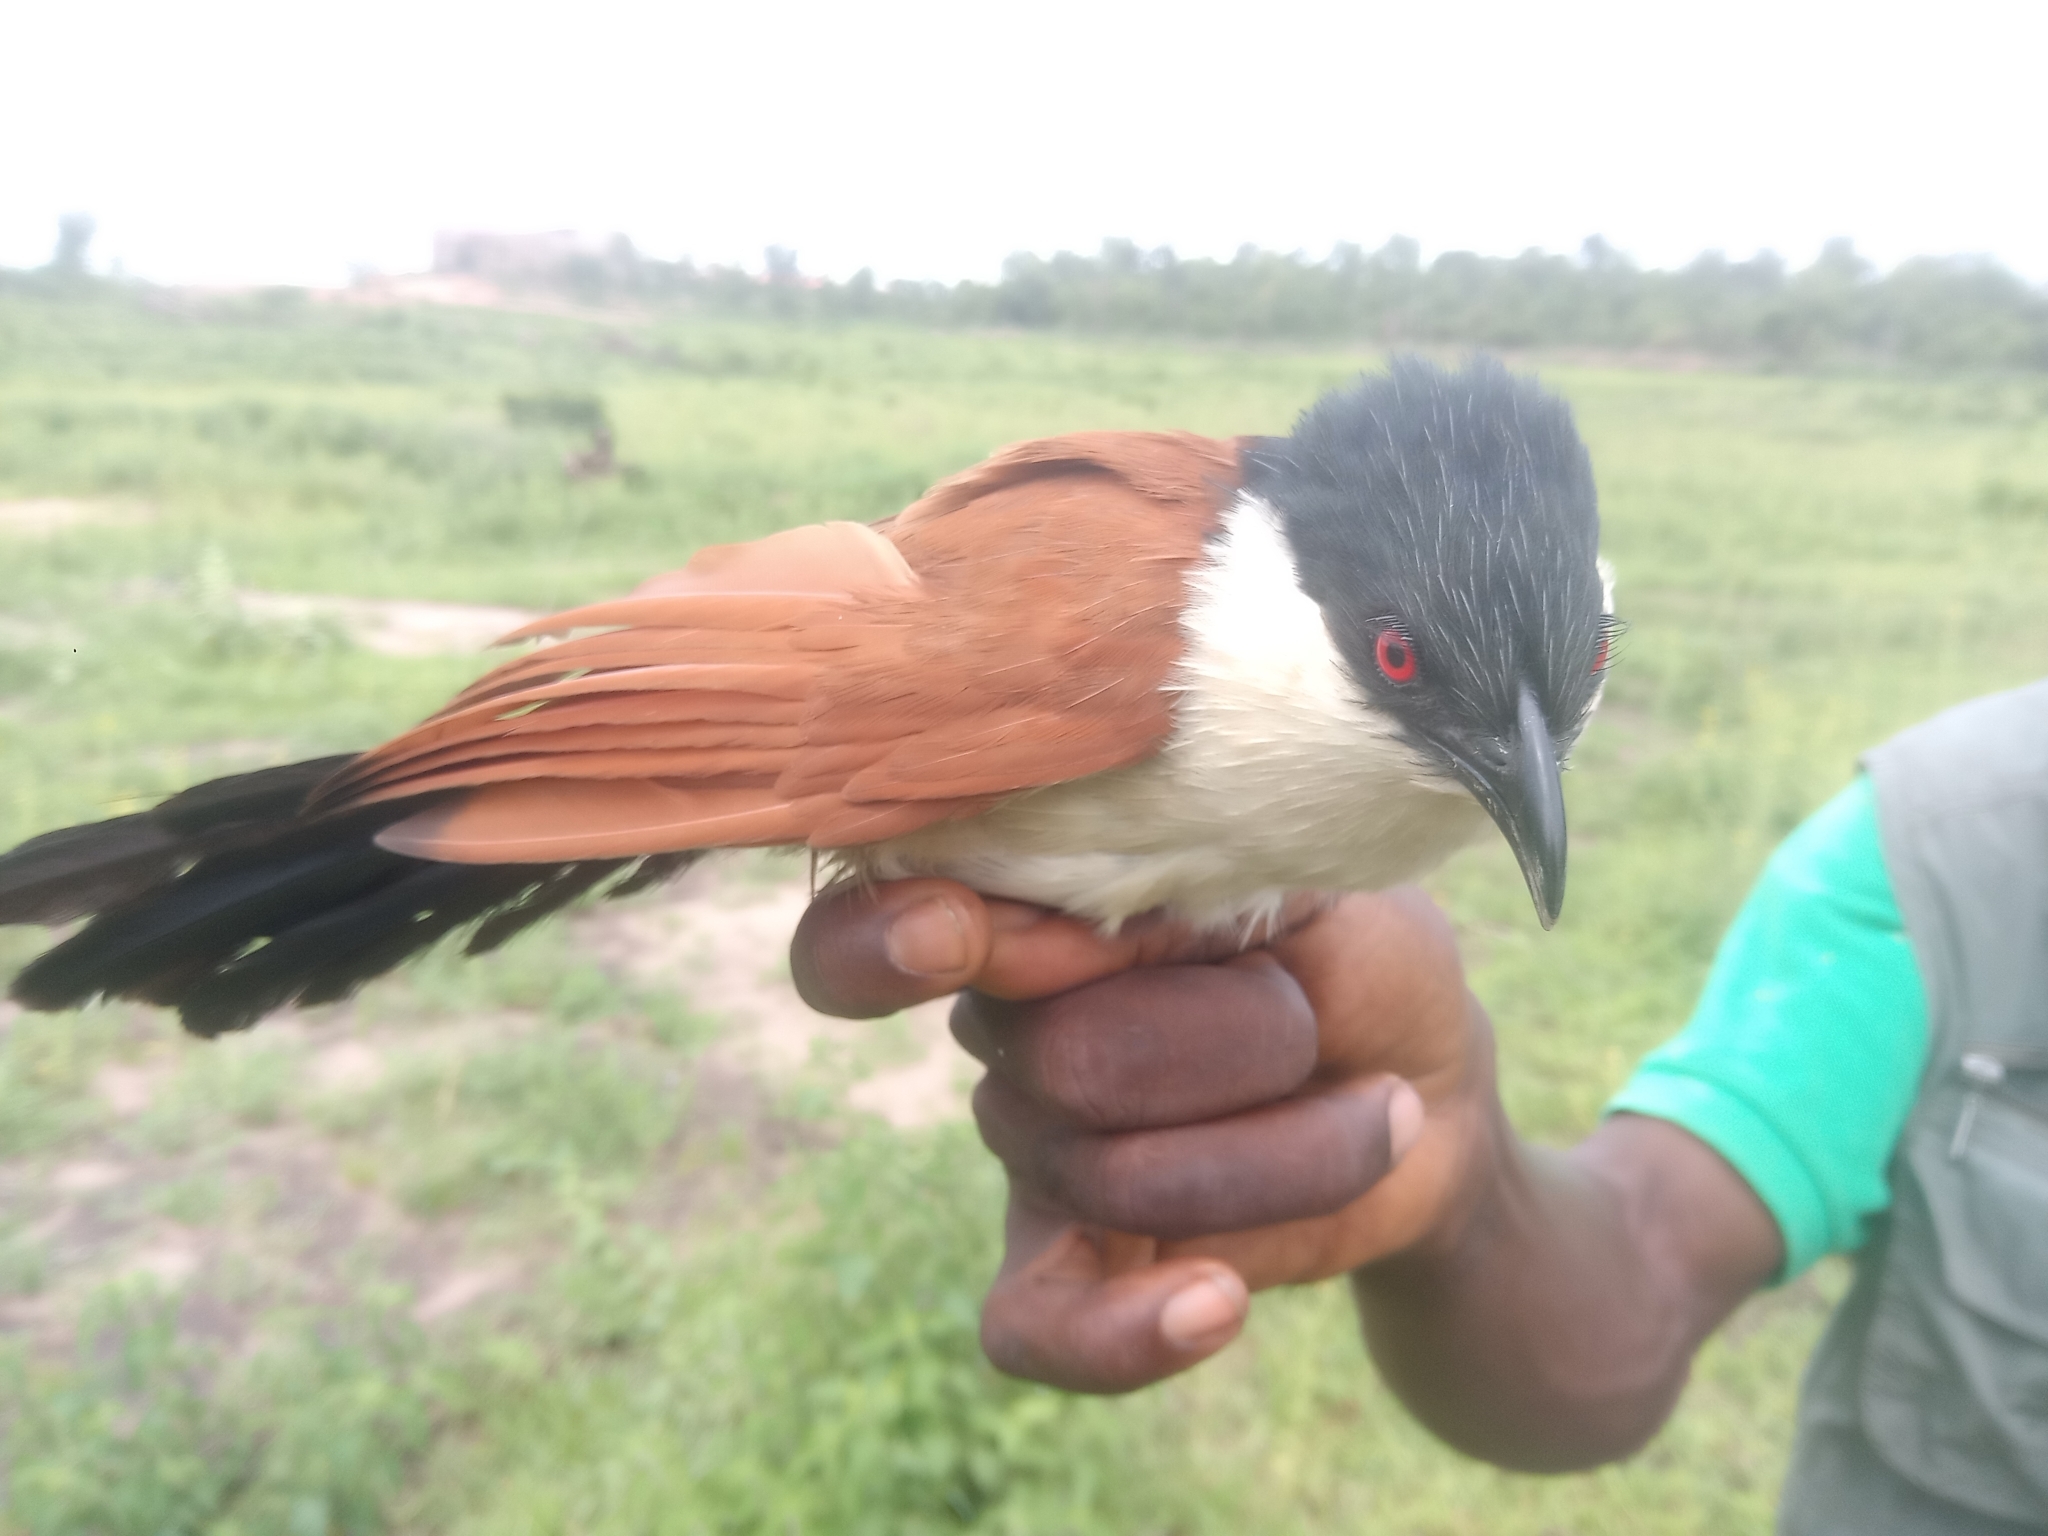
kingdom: Animalia
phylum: Chordata
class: Aves
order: Cuculiformes
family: Cuculidae
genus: Centropus
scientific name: Centropus senegalensis
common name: Senegal coucal
